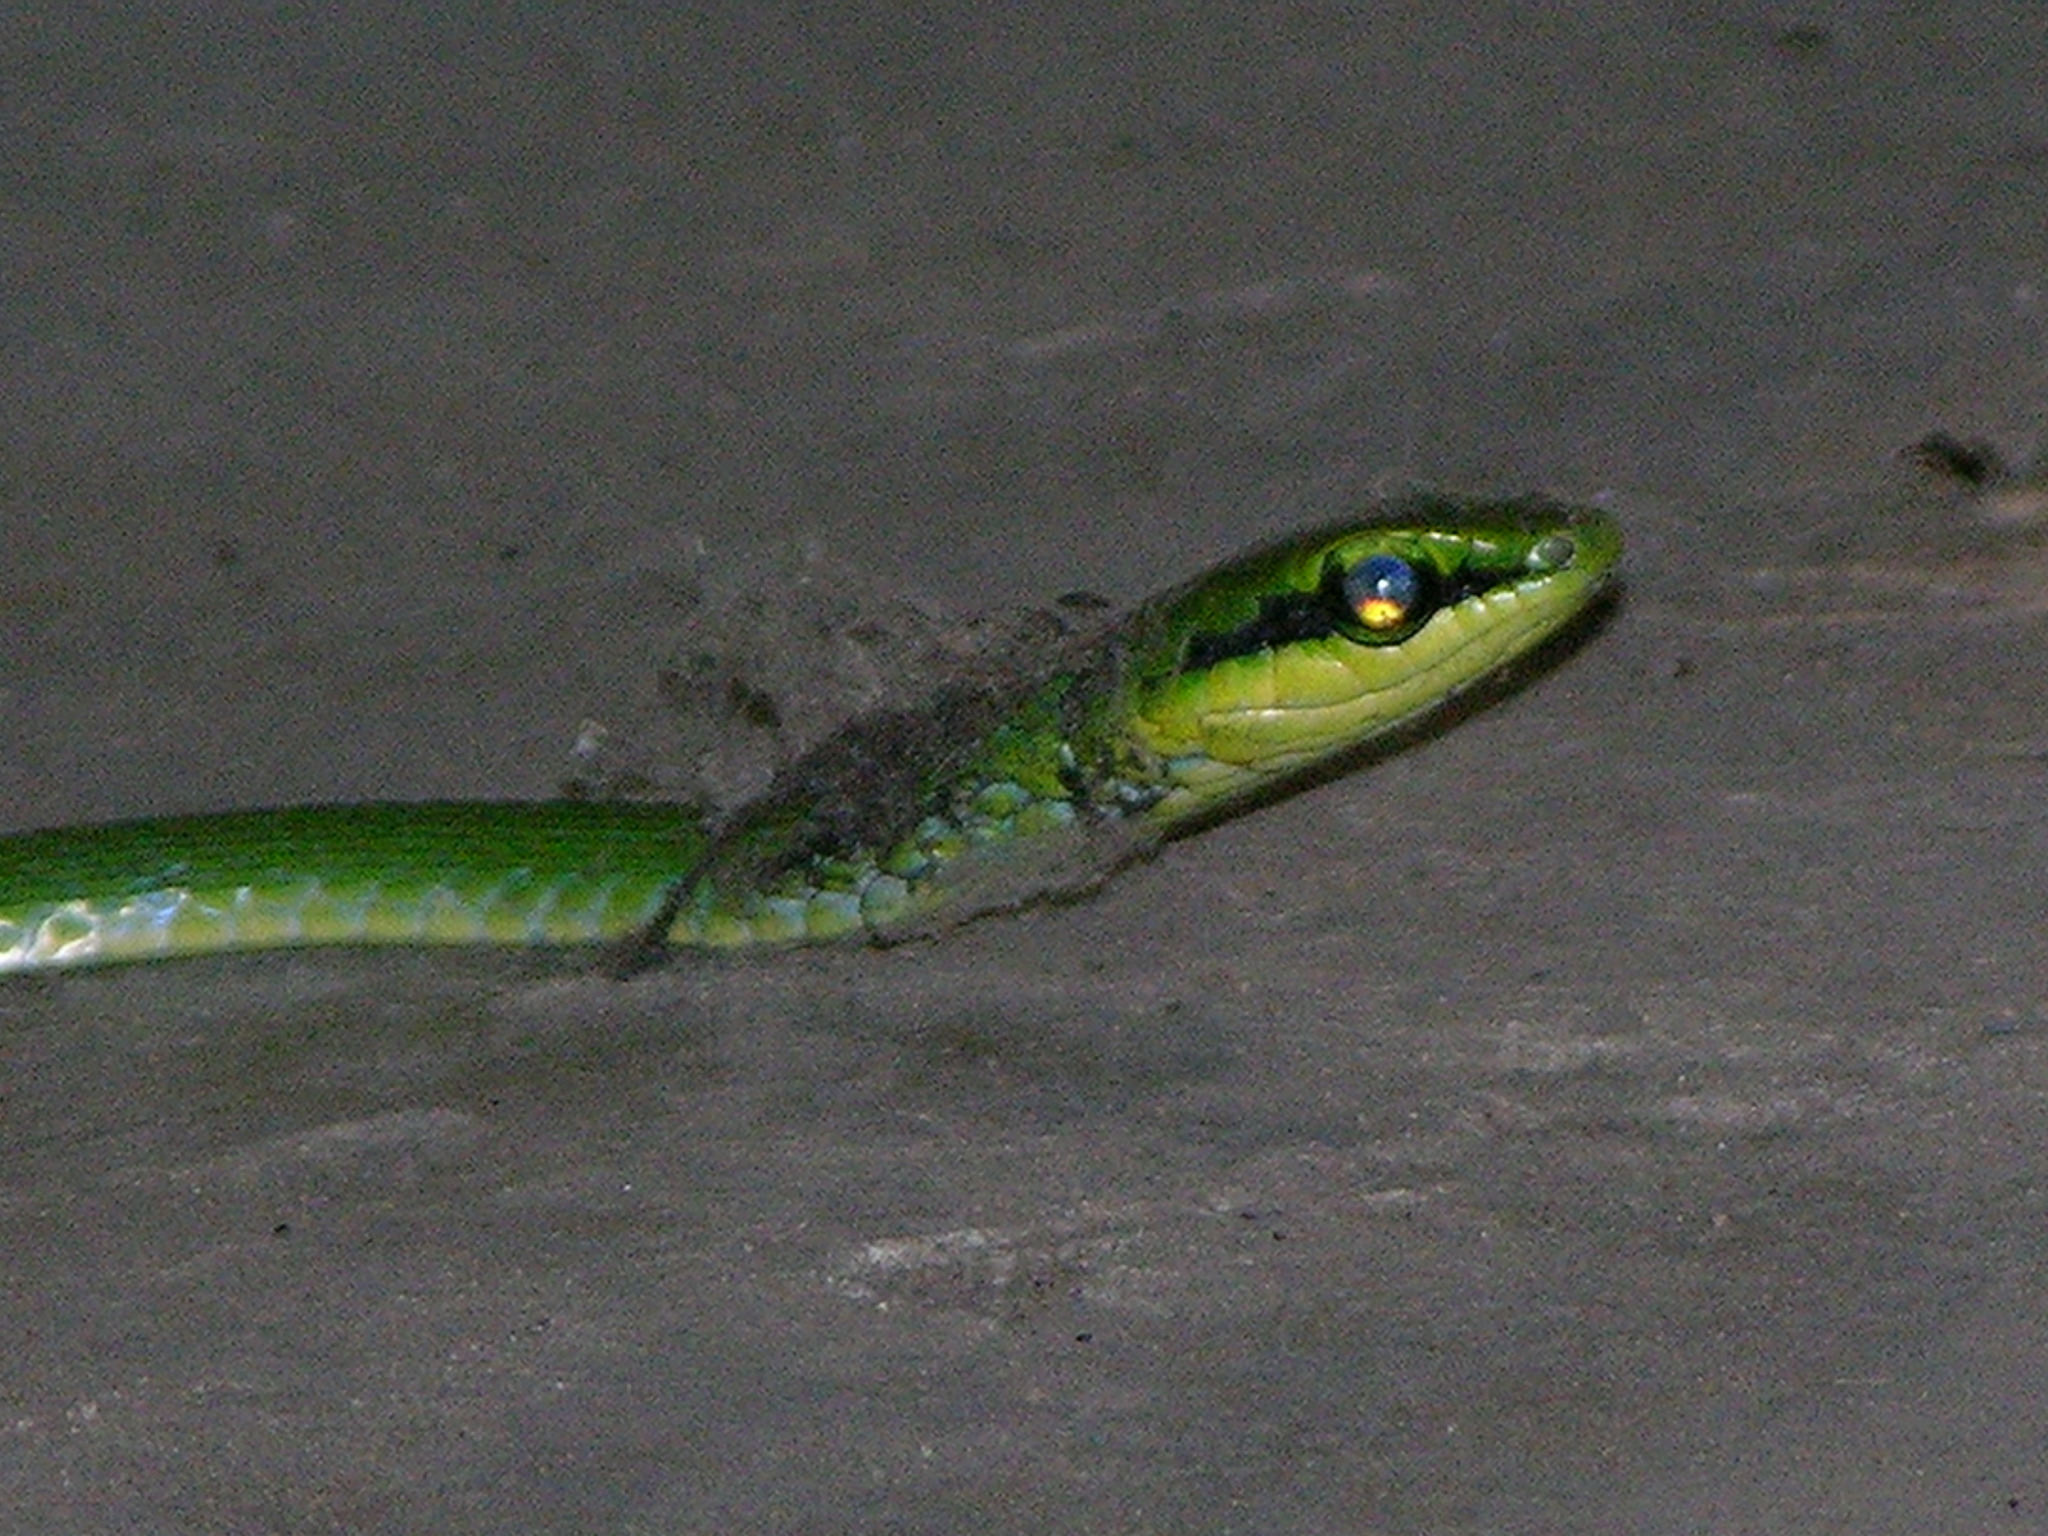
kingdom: Animalia
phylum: Chordata
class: Squamata
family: Colubridae
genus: Hapsidophrys
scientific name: Hapsidophrys smaragdinus
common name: Emerald snake
